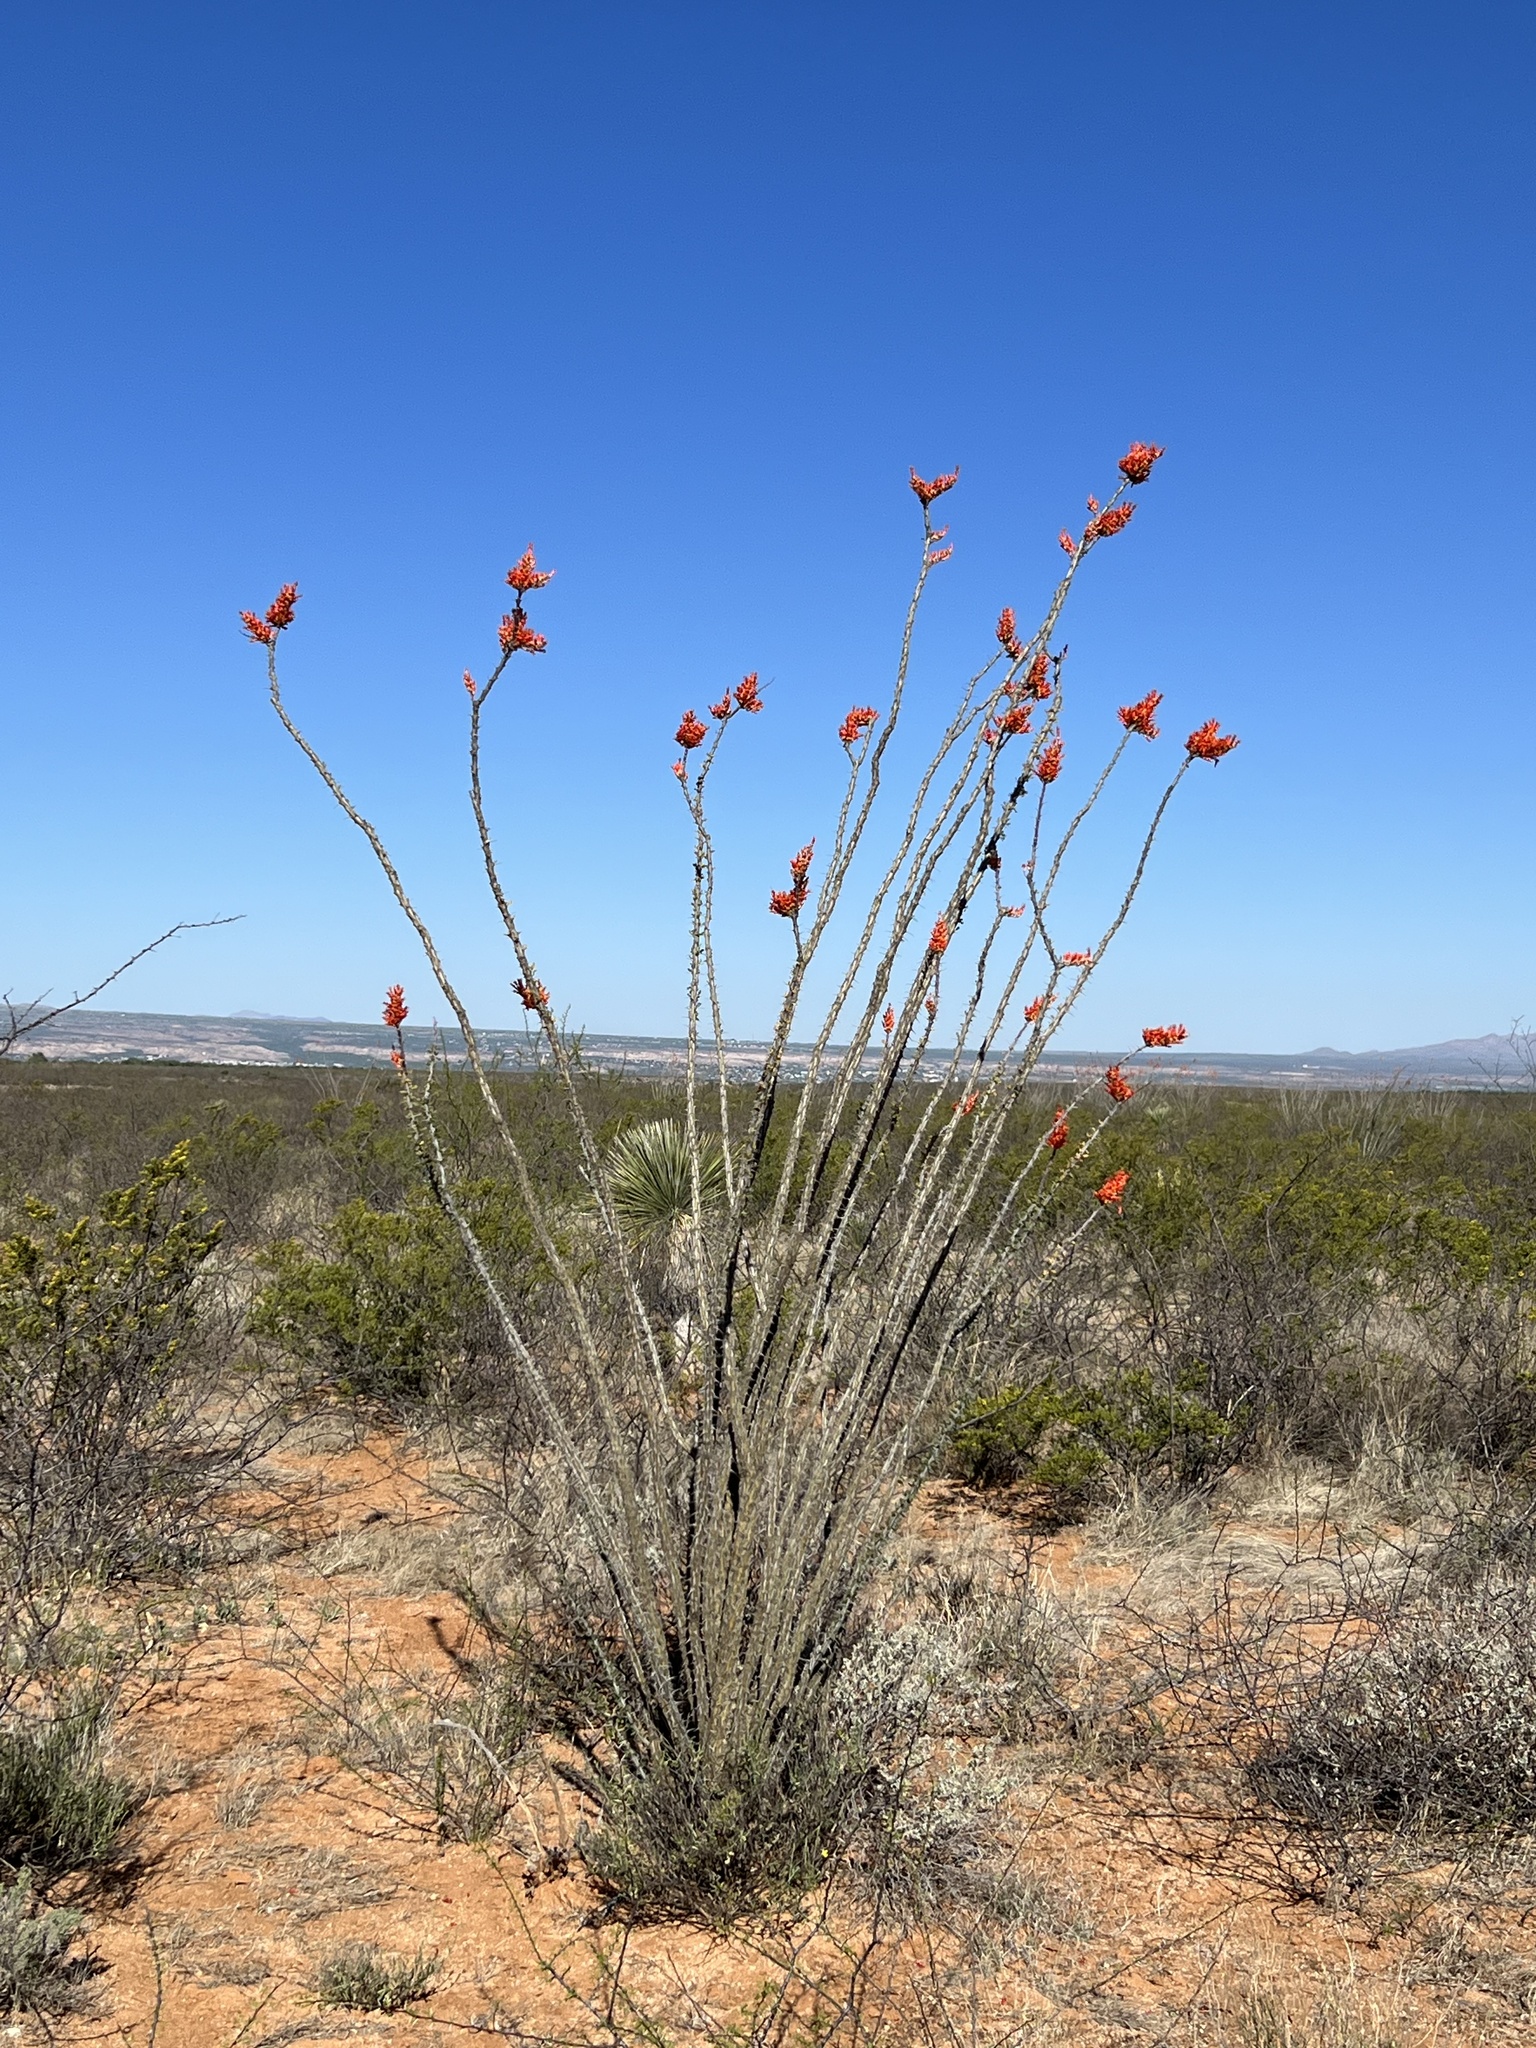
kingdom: Plantae
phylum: Tracheophyta
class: Magnoliopsida
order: Ericales
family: Fouquieriaceae
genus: Fouquieria
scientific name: Fouquieria splendens
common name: Vine-cactus
